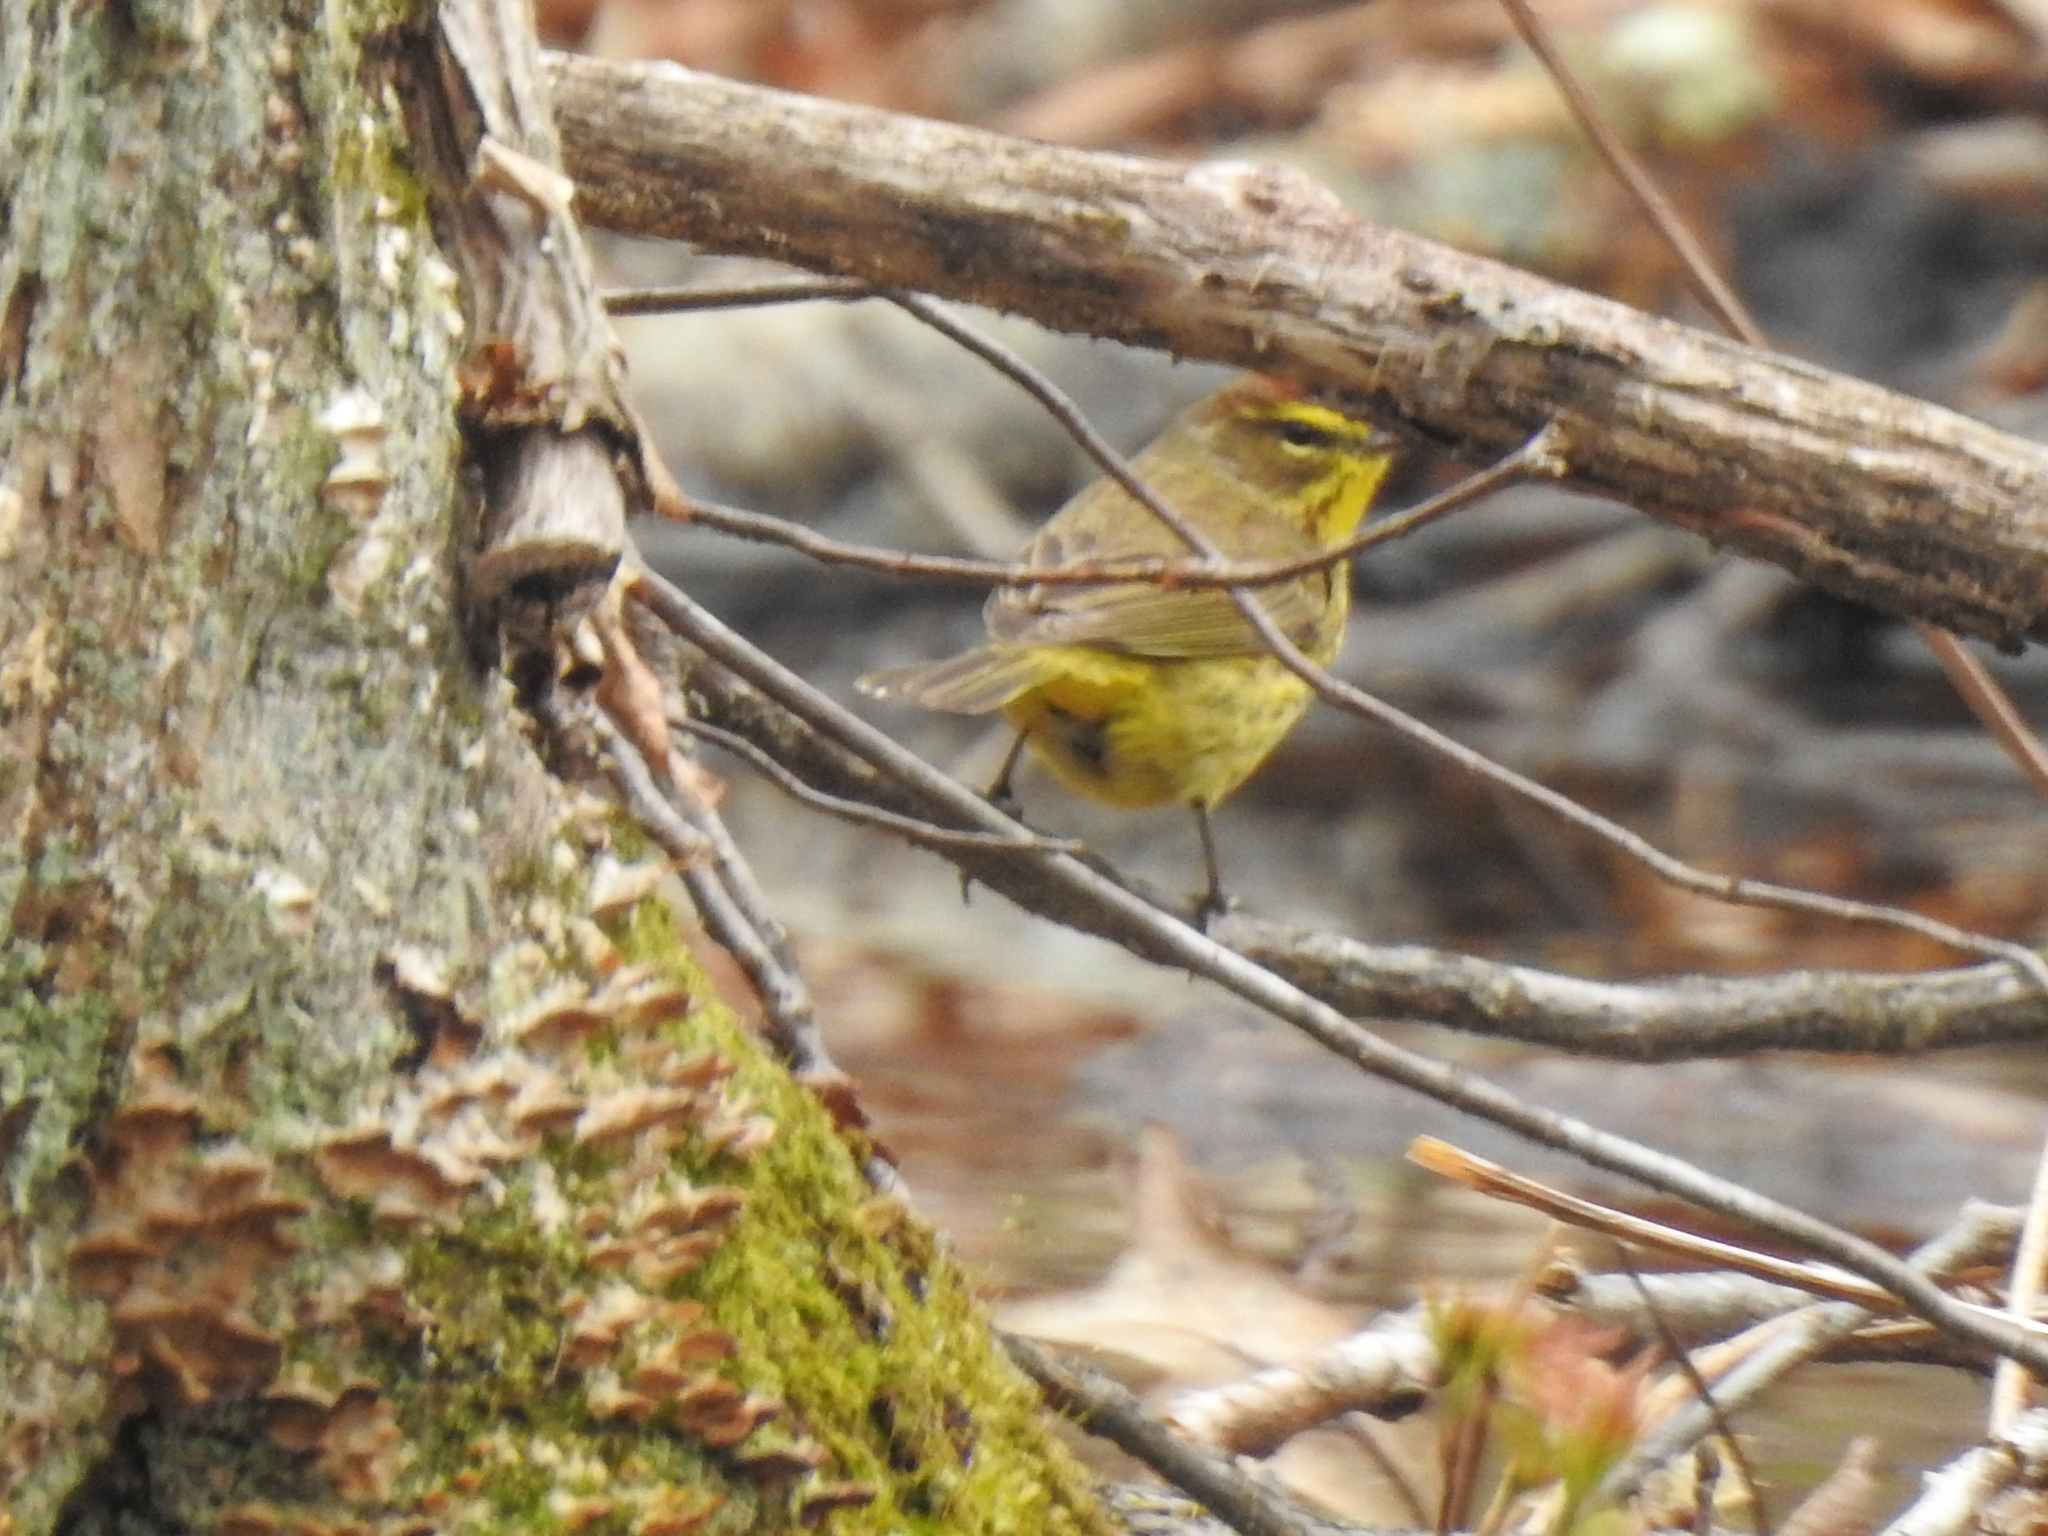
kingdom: Animalia
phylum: Chordata
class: Aves
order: Passeriformes
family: Parulidae
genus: Setophaga
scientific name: Setophaga palmarum
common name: Palm warbler
